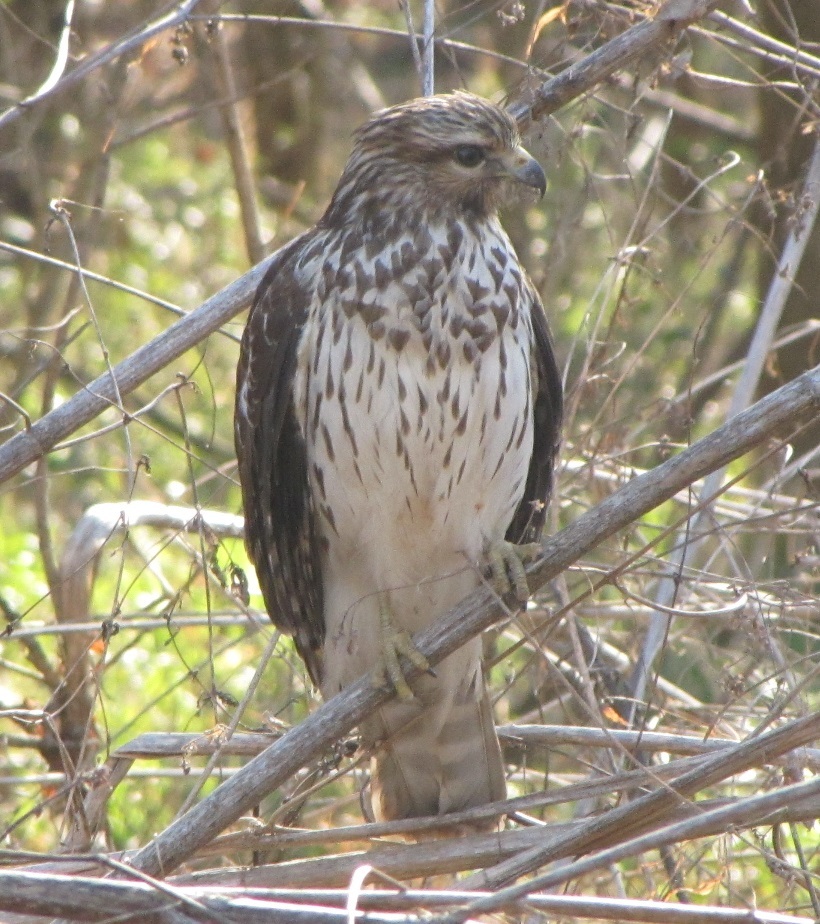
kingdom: Animalia
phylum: Chordata
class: Aves
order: Accipitriformes
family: Accipitridae
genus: Buteo
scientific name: Buteo lineatus
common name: Red-shouldered hawk
